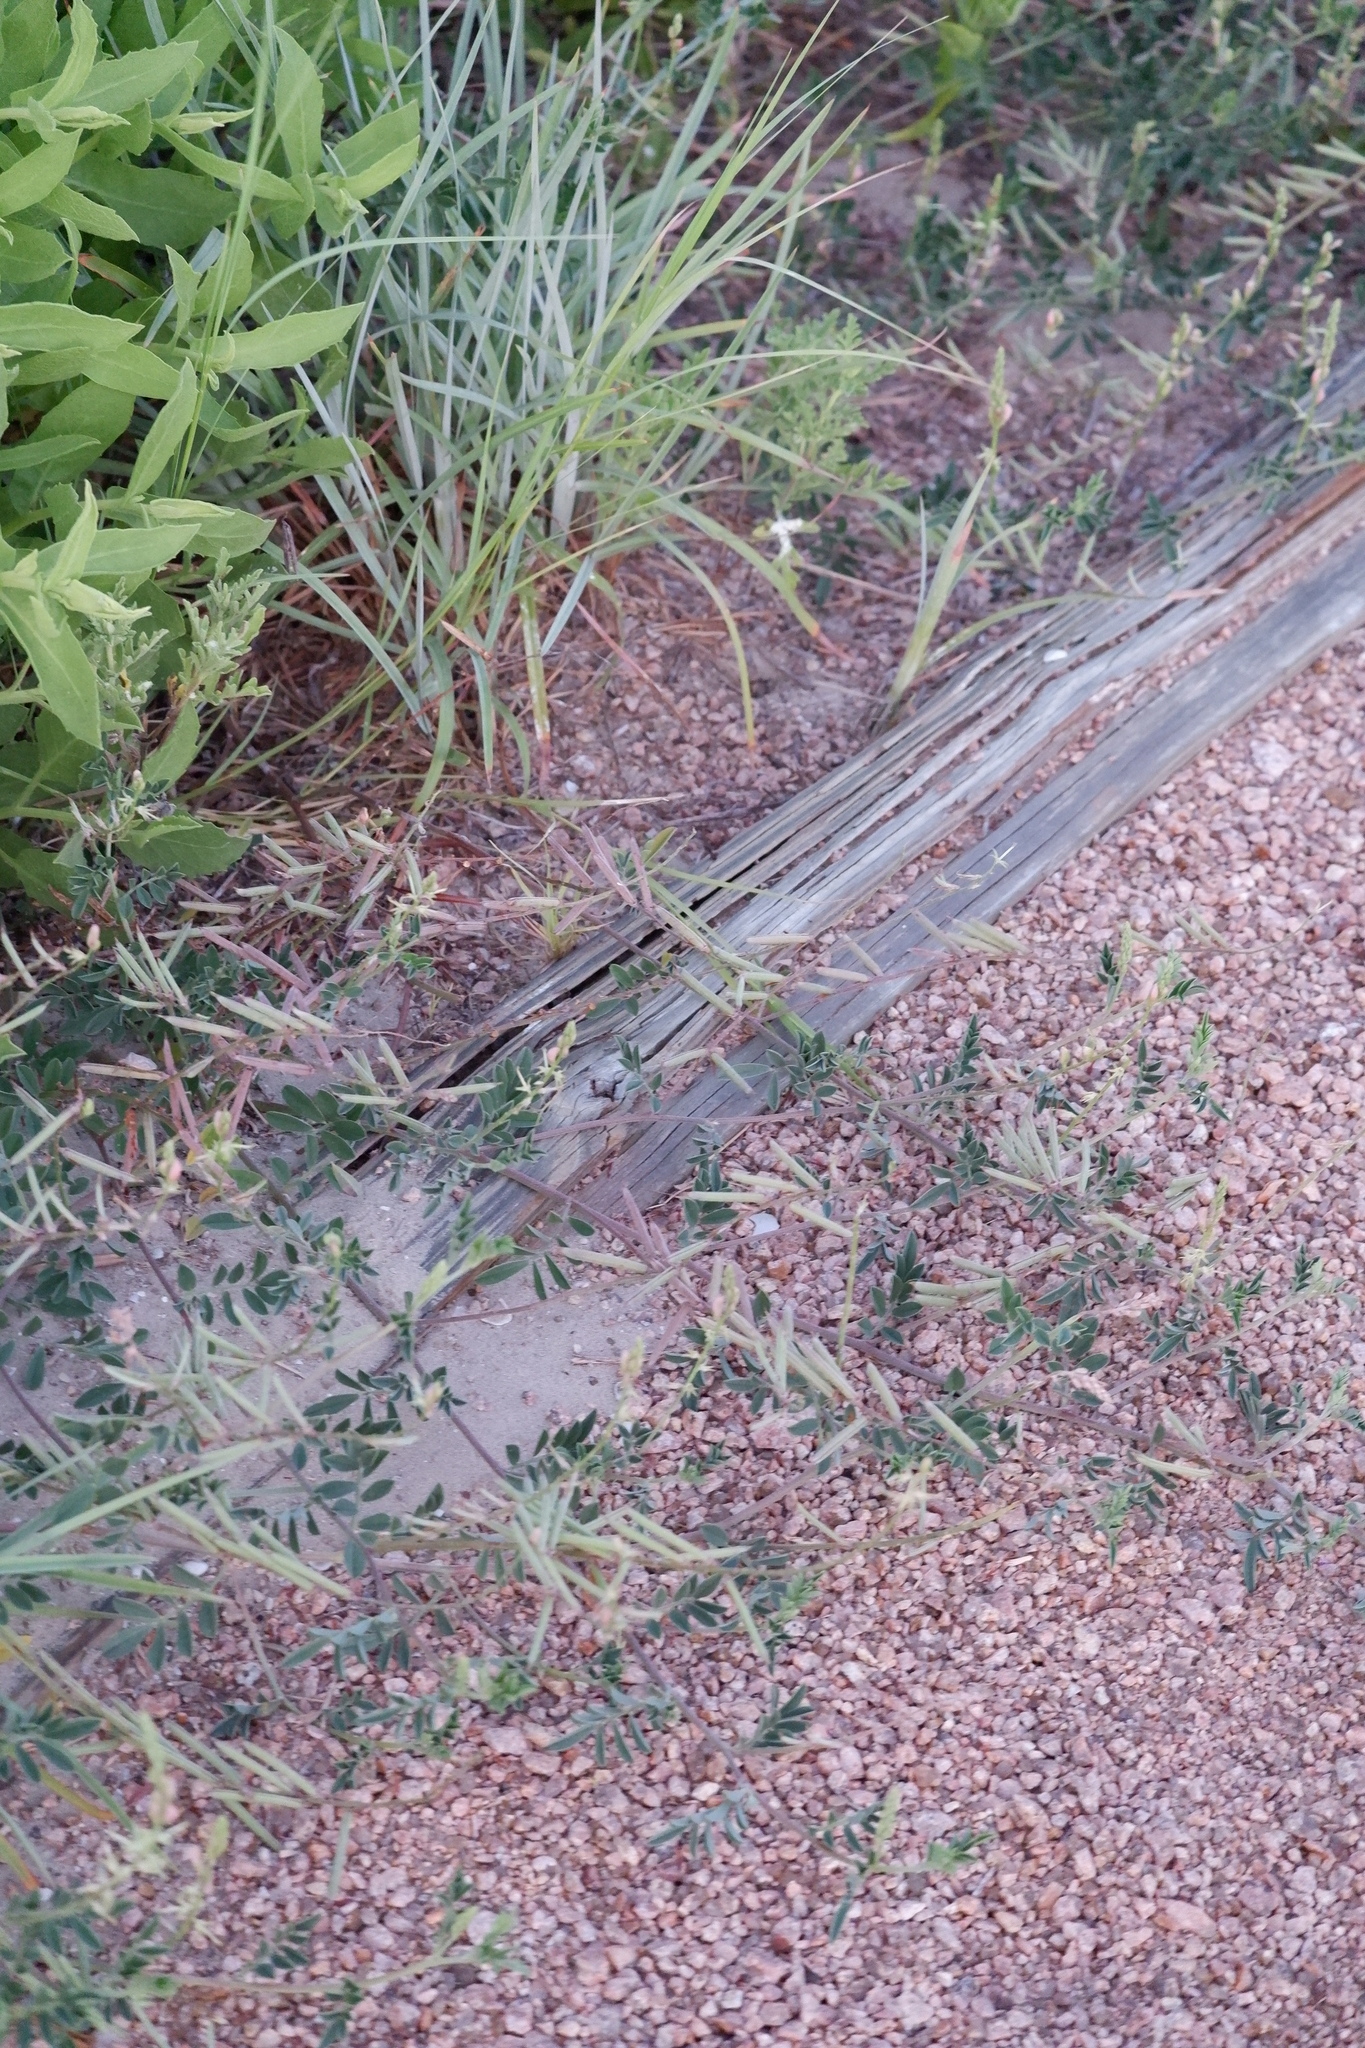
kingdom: Plantae
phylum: Tracheophyta
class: Magnoliopsida
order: Fabales
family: Fabaceae
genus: Indigofera
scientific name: Indigofera miniata
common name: Coast indigo
